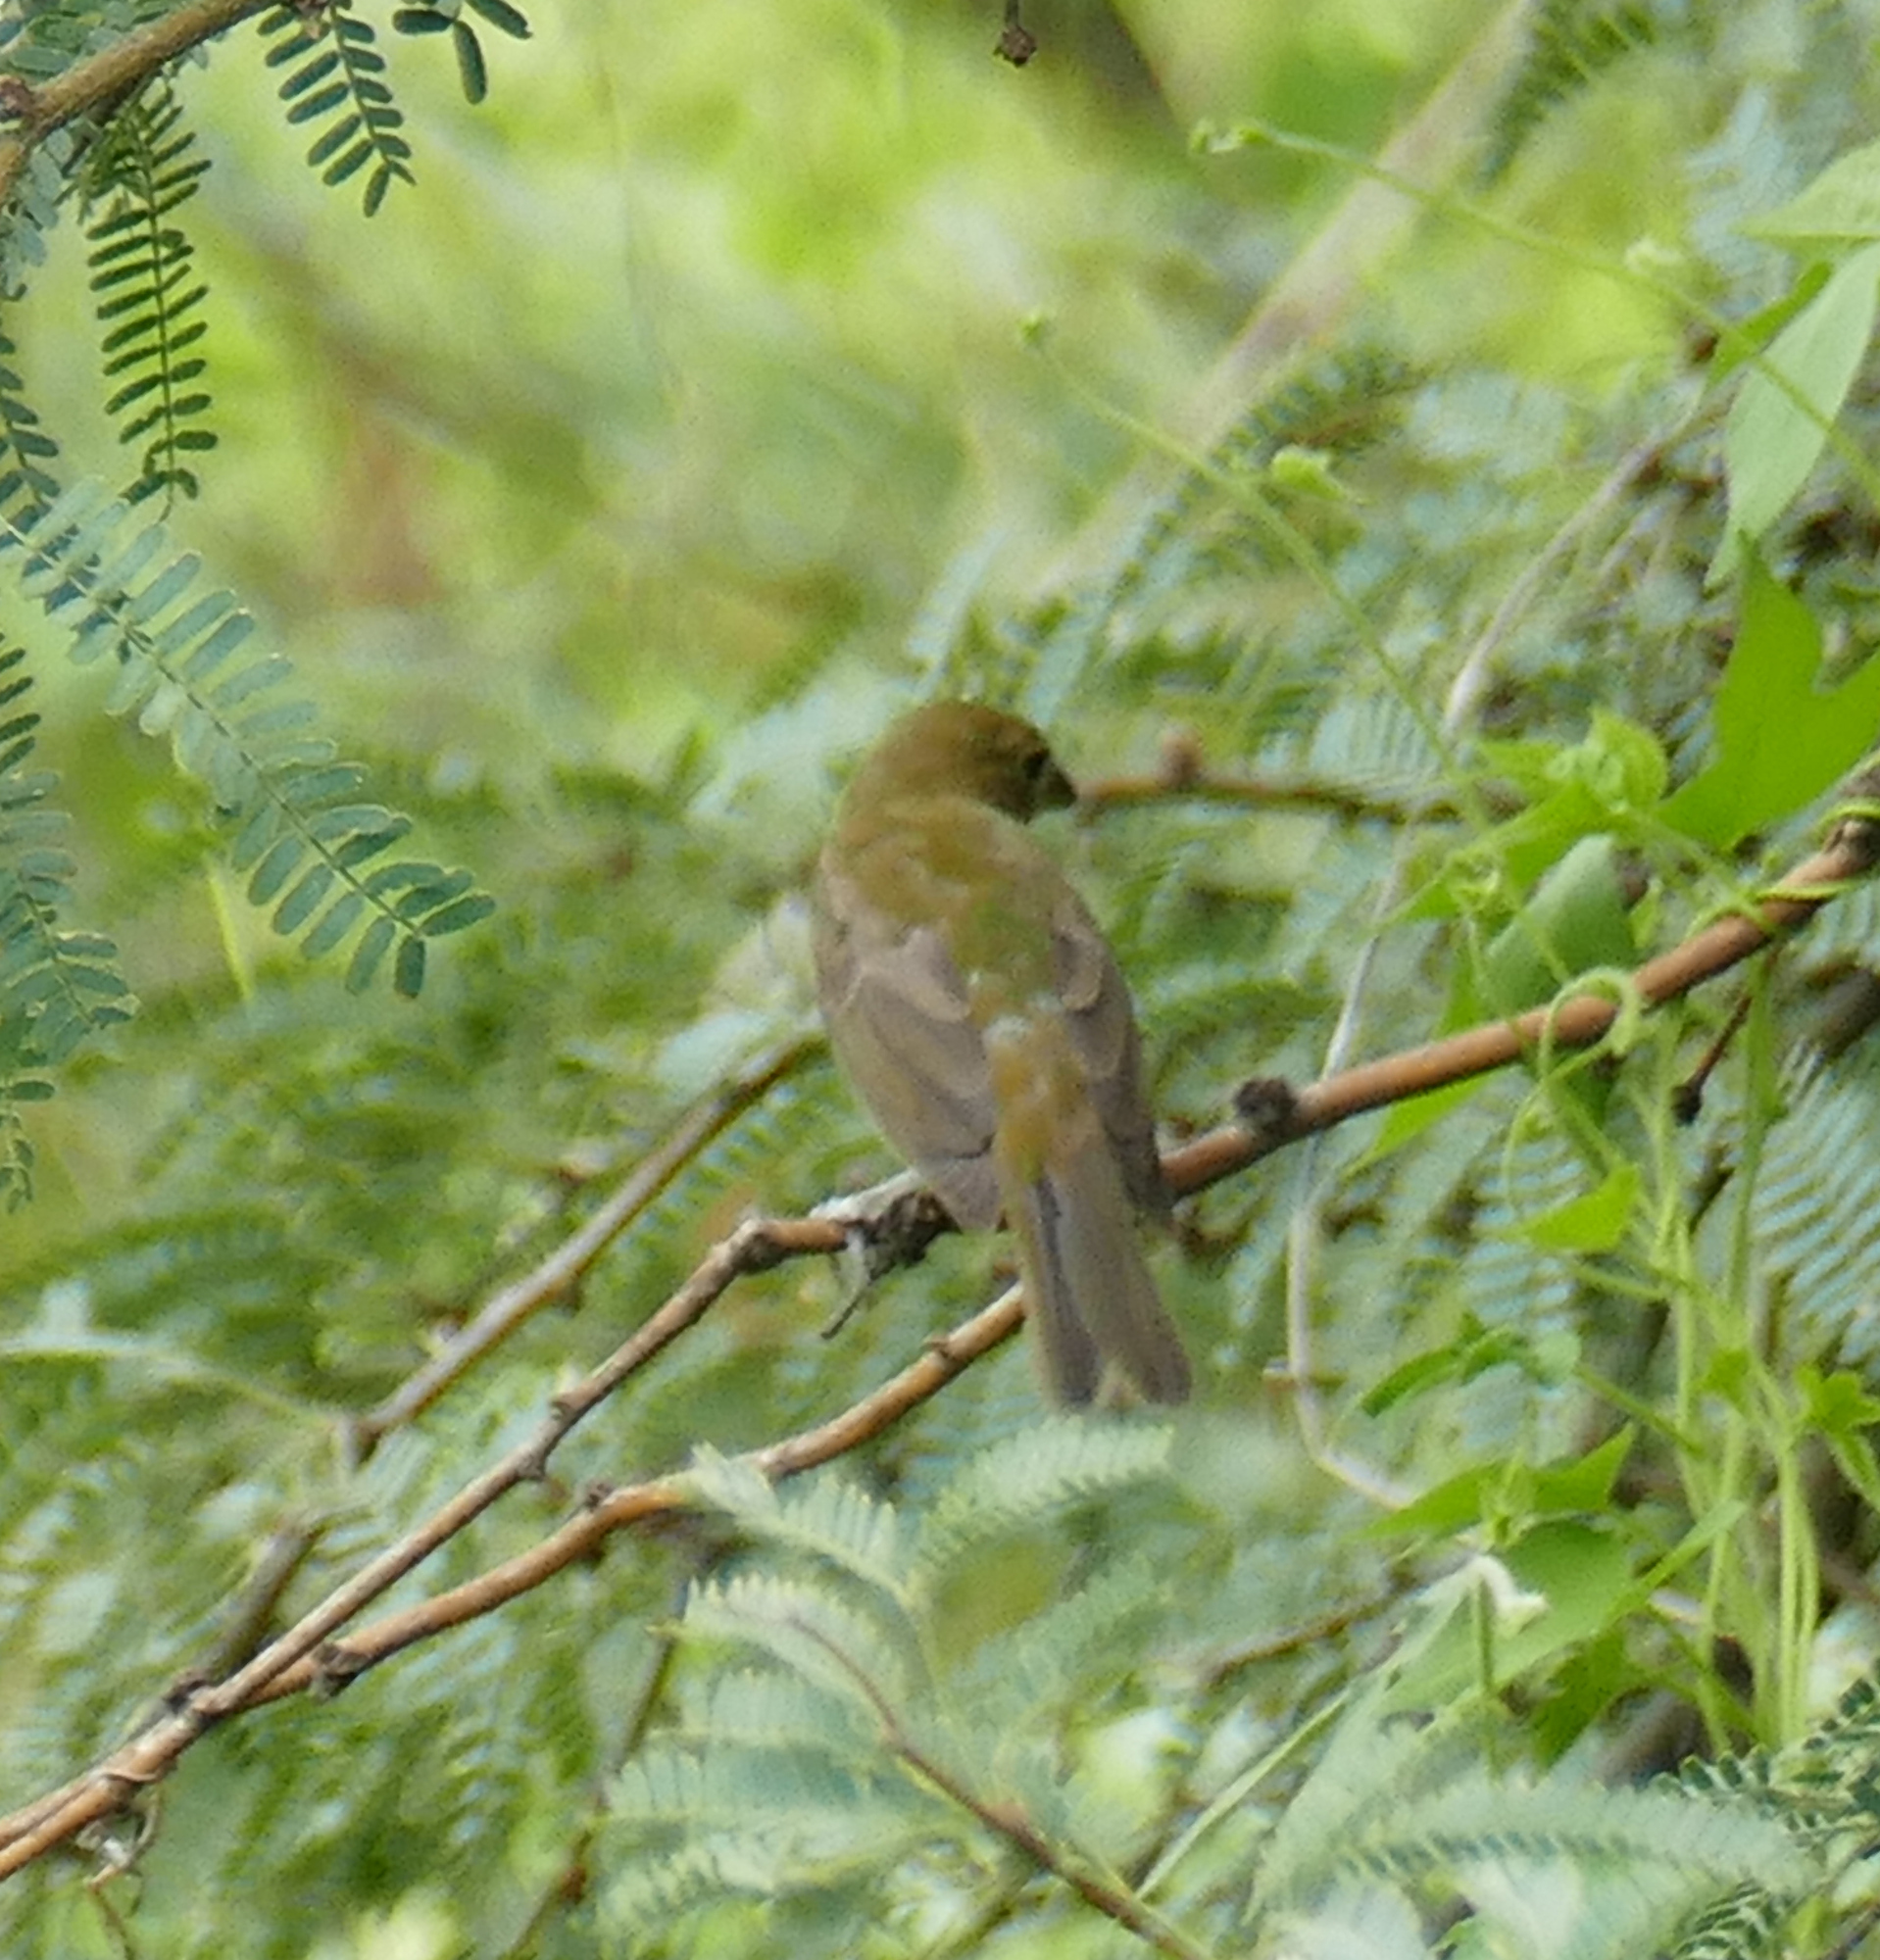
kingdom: Animalia
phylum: Chordata
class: Aves
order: Passeriformes
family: Cardinalidae
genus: Passerina
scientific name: Passerina ciris
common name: Painted bunting
